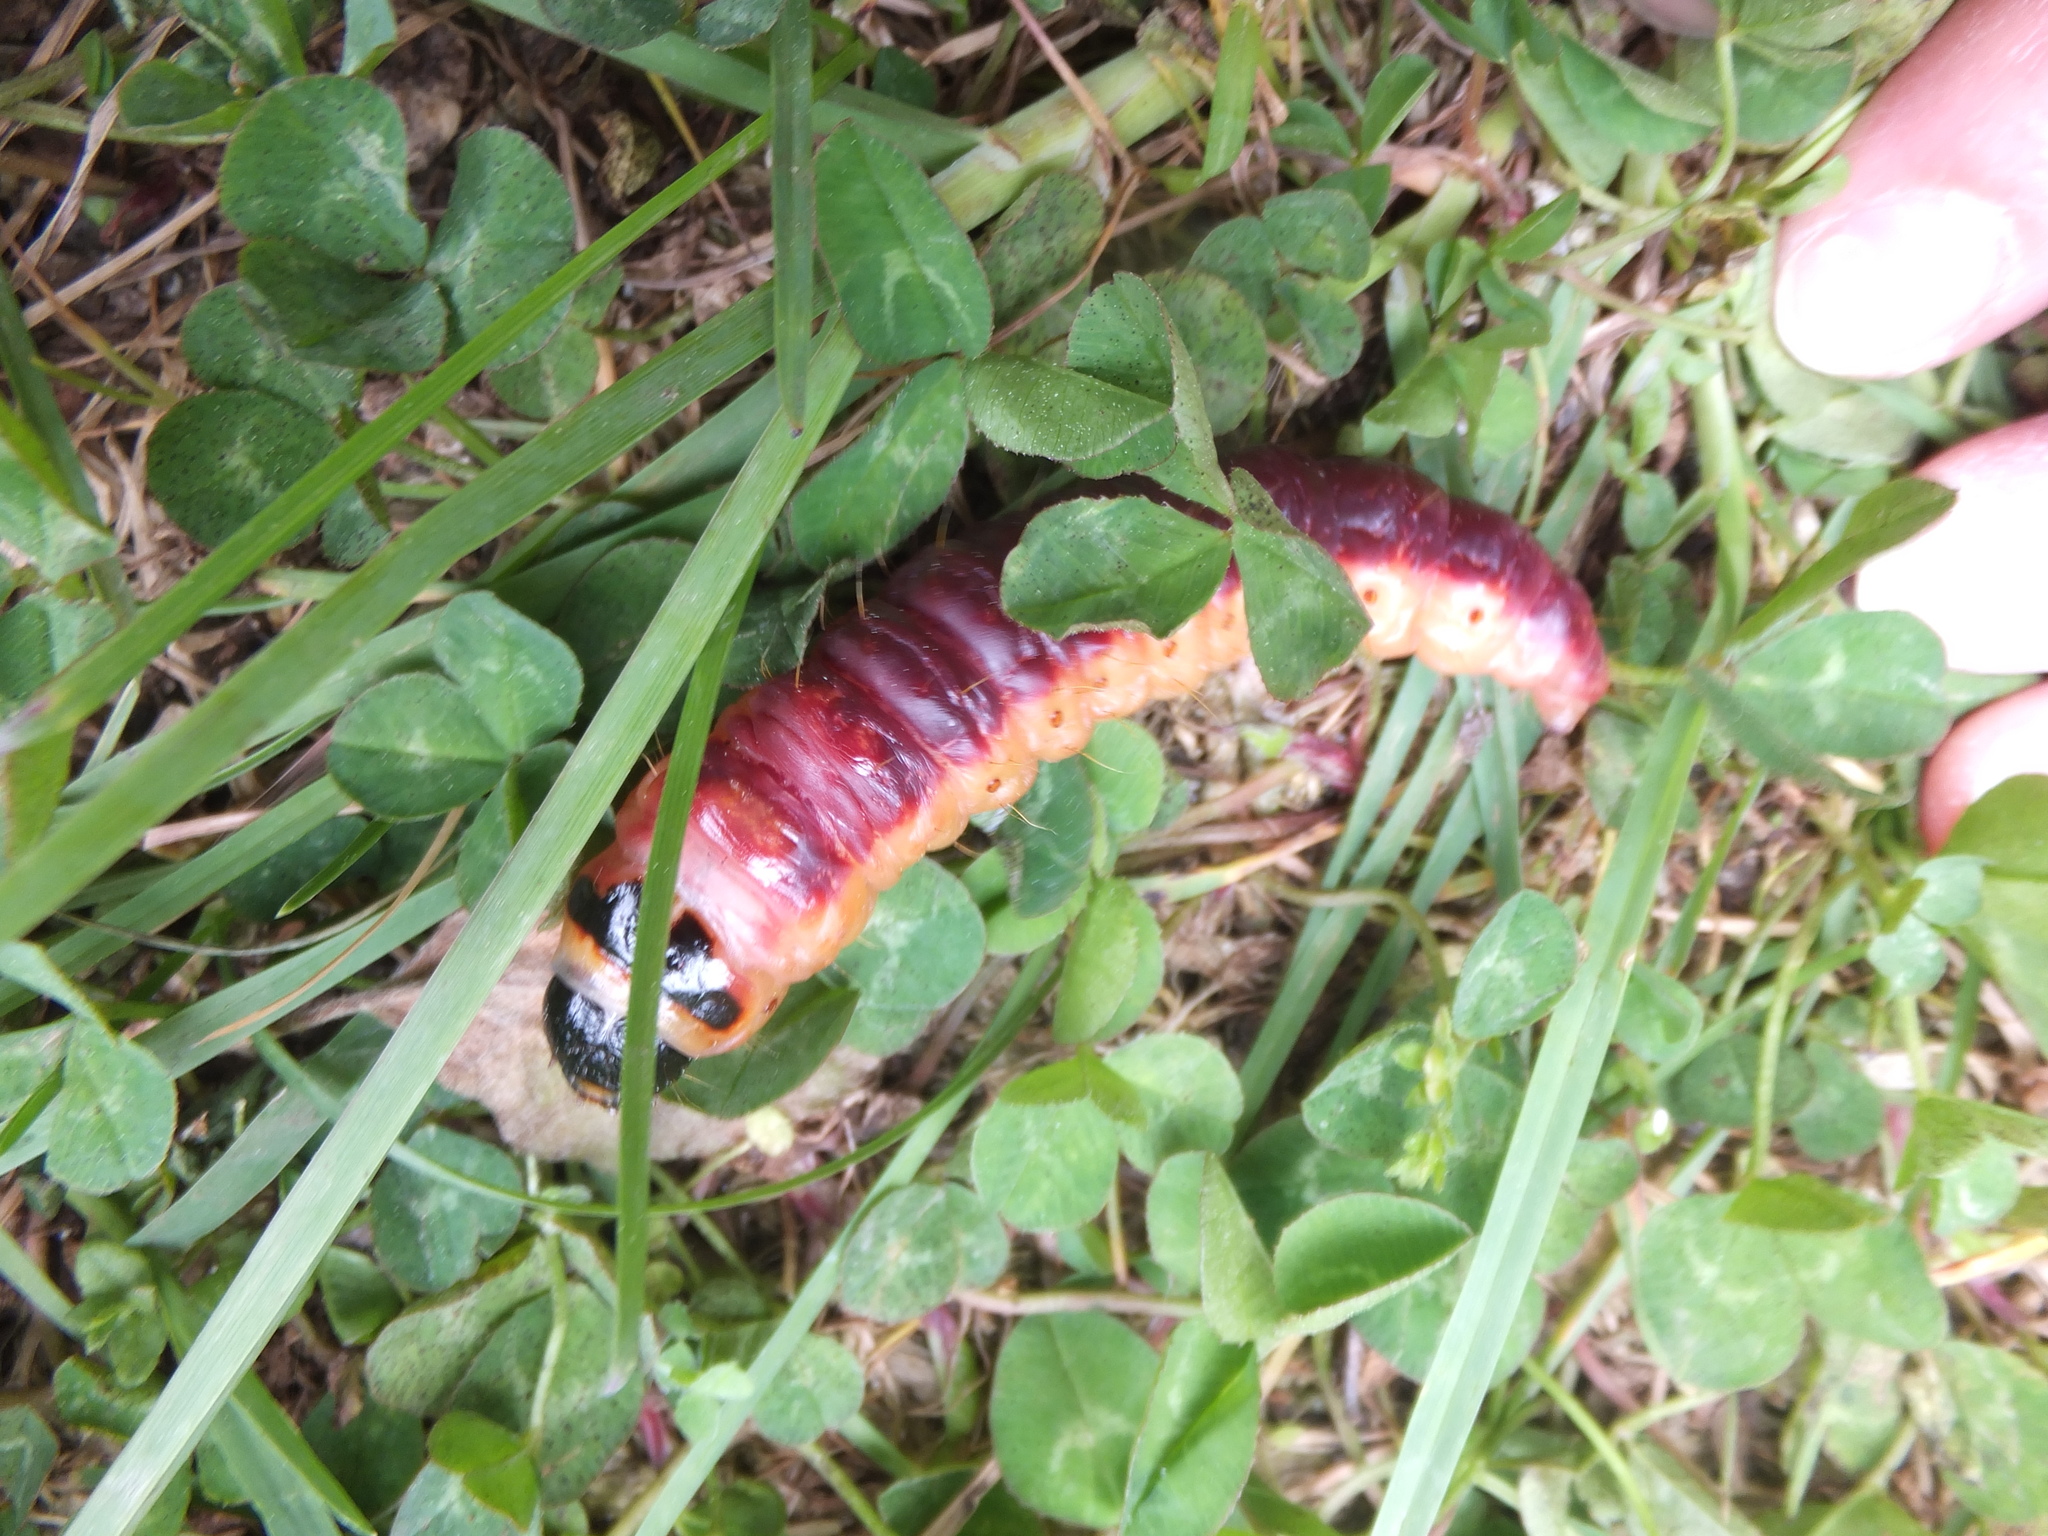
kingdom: Animalia
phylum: Arthropoda
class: Insecta
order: Lepidoptera
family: Cossidae
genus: Cossus
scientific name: Cossus cossus
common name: Goat moth
